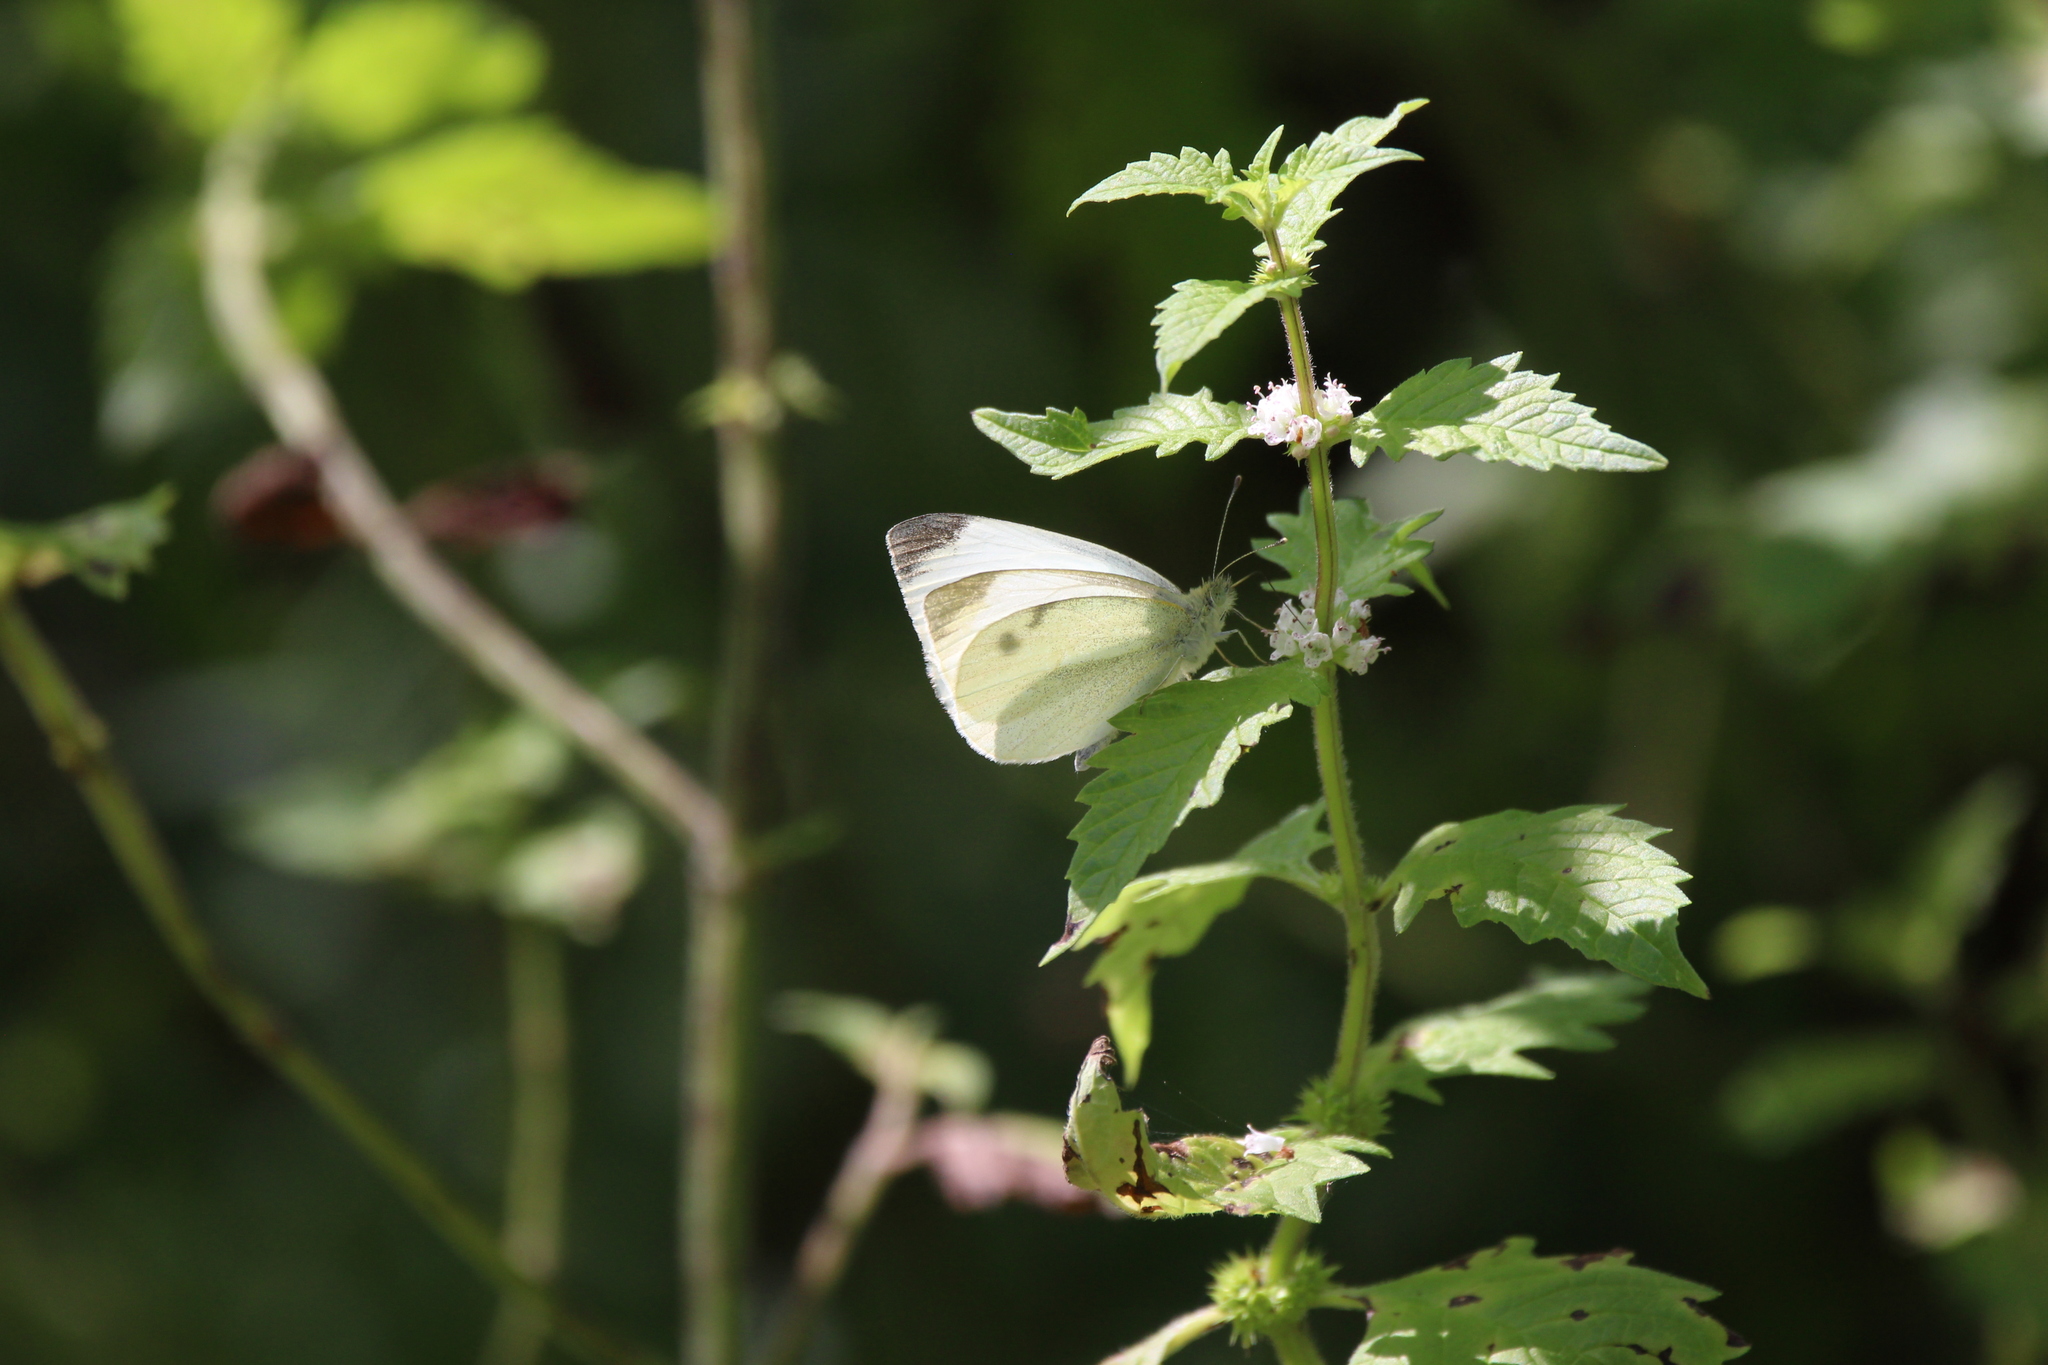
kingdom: Animalia
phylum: Arthropoda
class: Insecta
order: Lepidoptera
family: Pieridae
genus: Pieris
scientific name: Pieris rapae
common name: Small white
